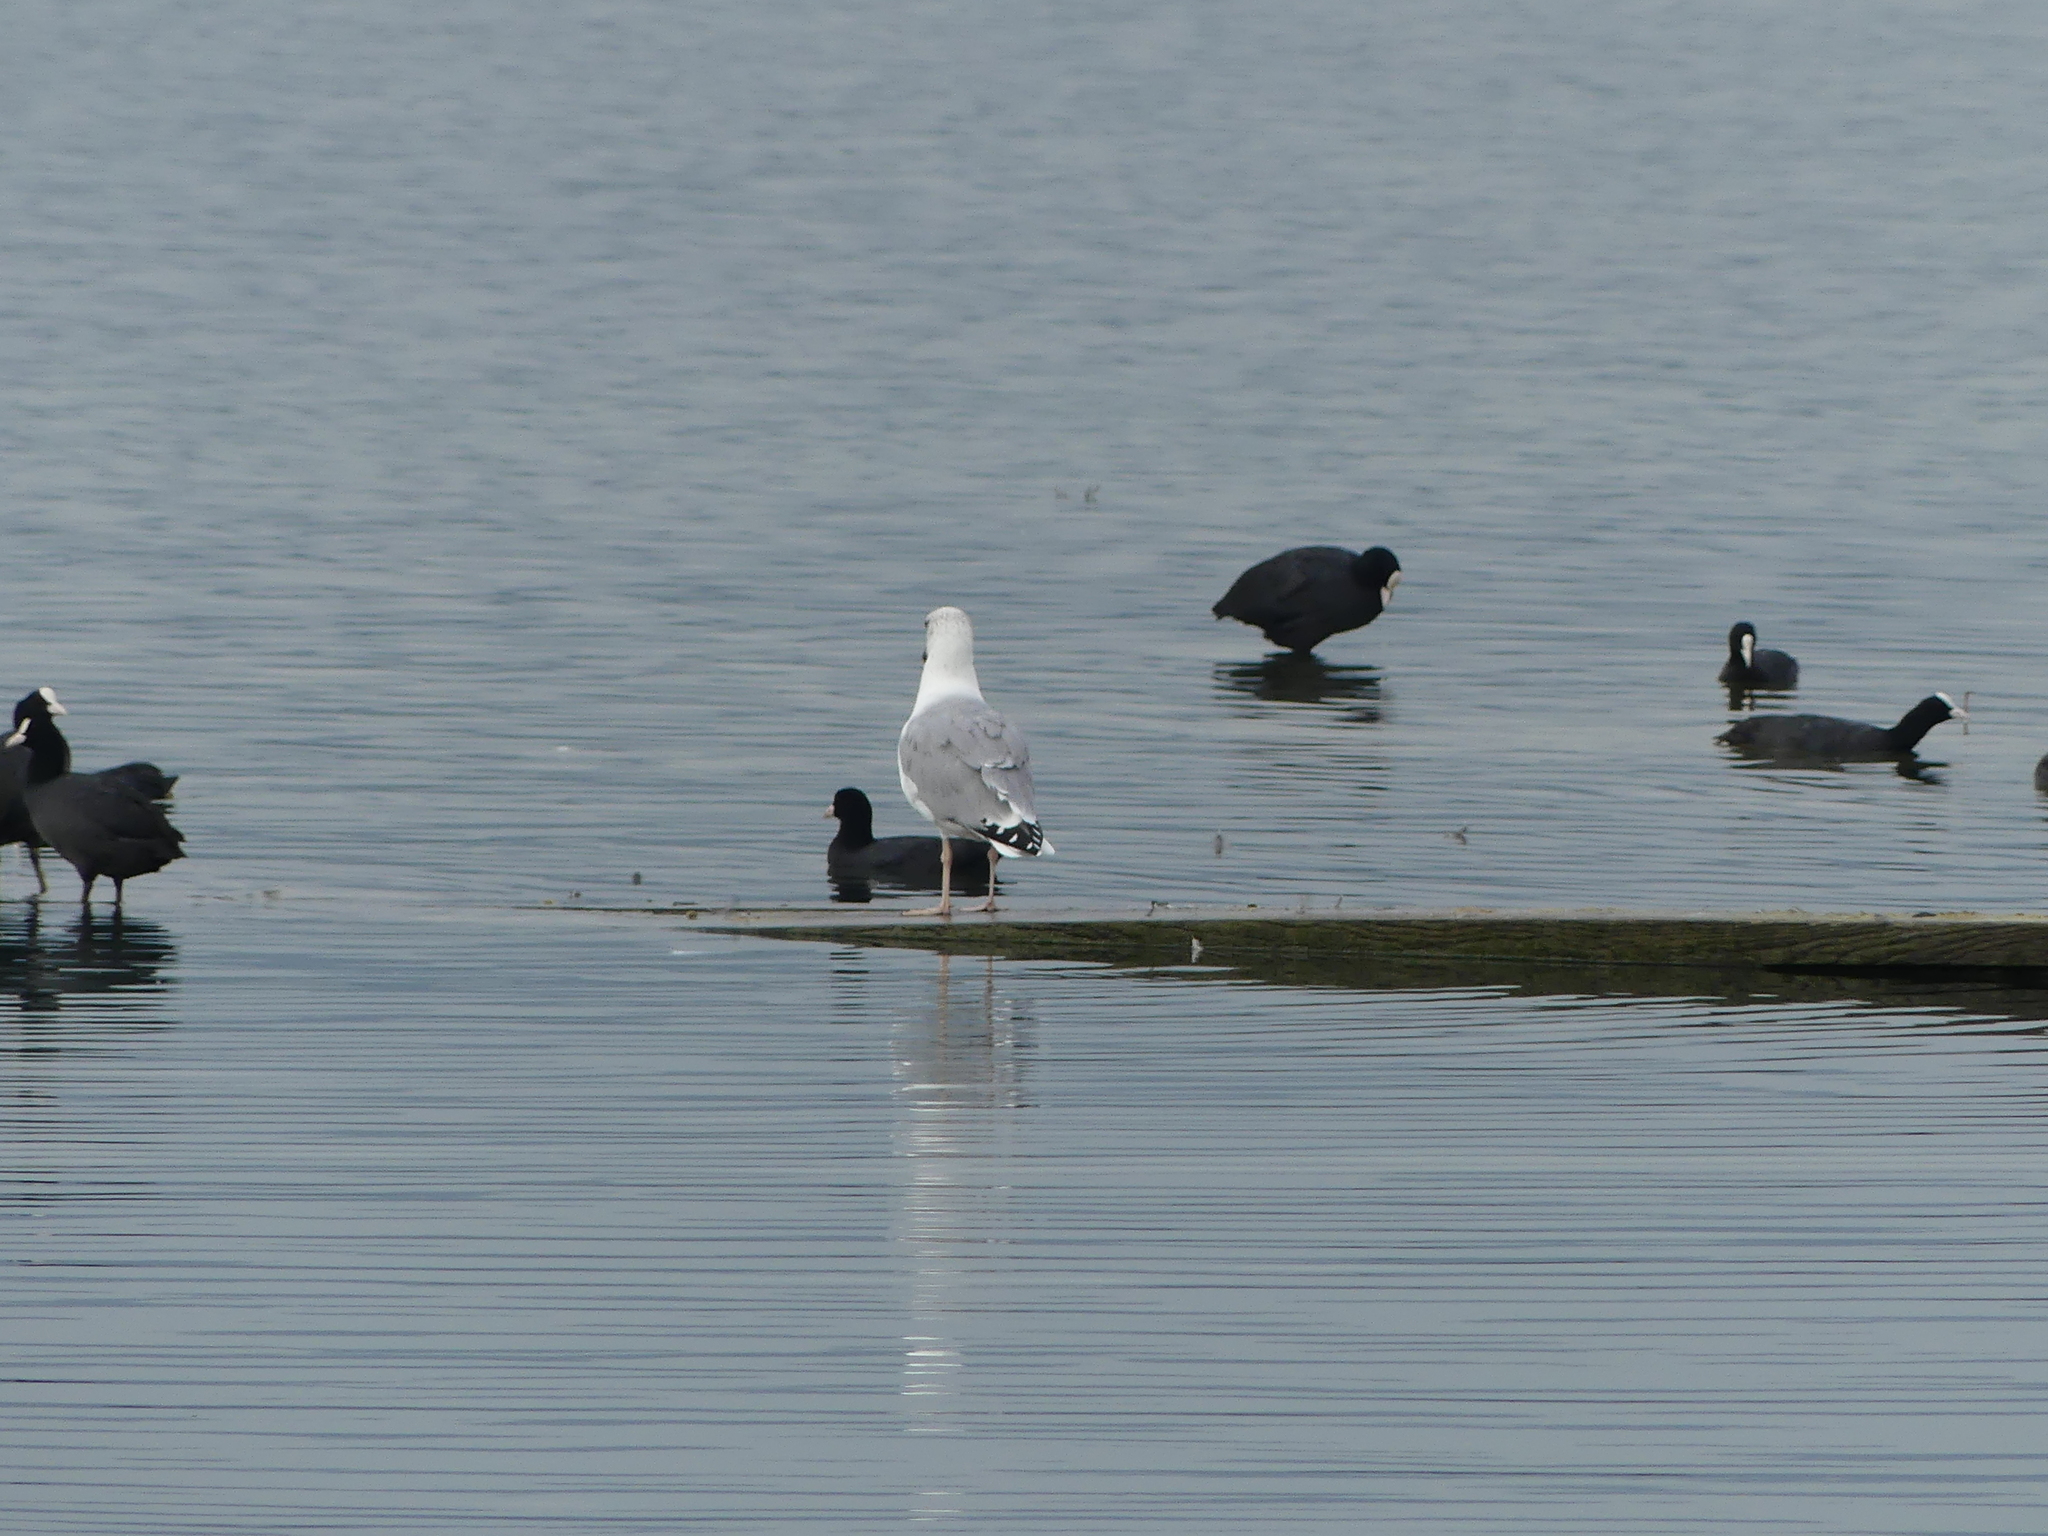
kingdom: Animalia
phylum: Chordata
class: Aves
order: Charadriiformes
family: Laridae
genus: Larus
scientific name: Larus michahellis
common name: Yellow-legged gull
